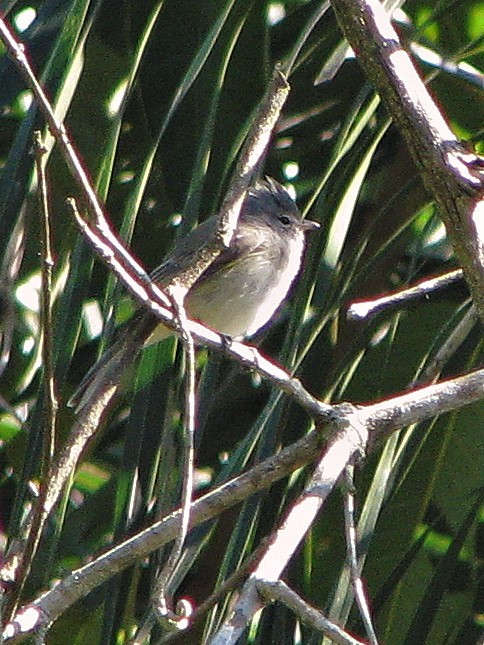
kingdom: Animalia
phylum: Chordata
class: Aves
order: Passeriformes
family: Tyrannidae
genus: Camptostoma
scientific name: Camptostoma obsoletum
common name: Southern beardless-tyrannulet
